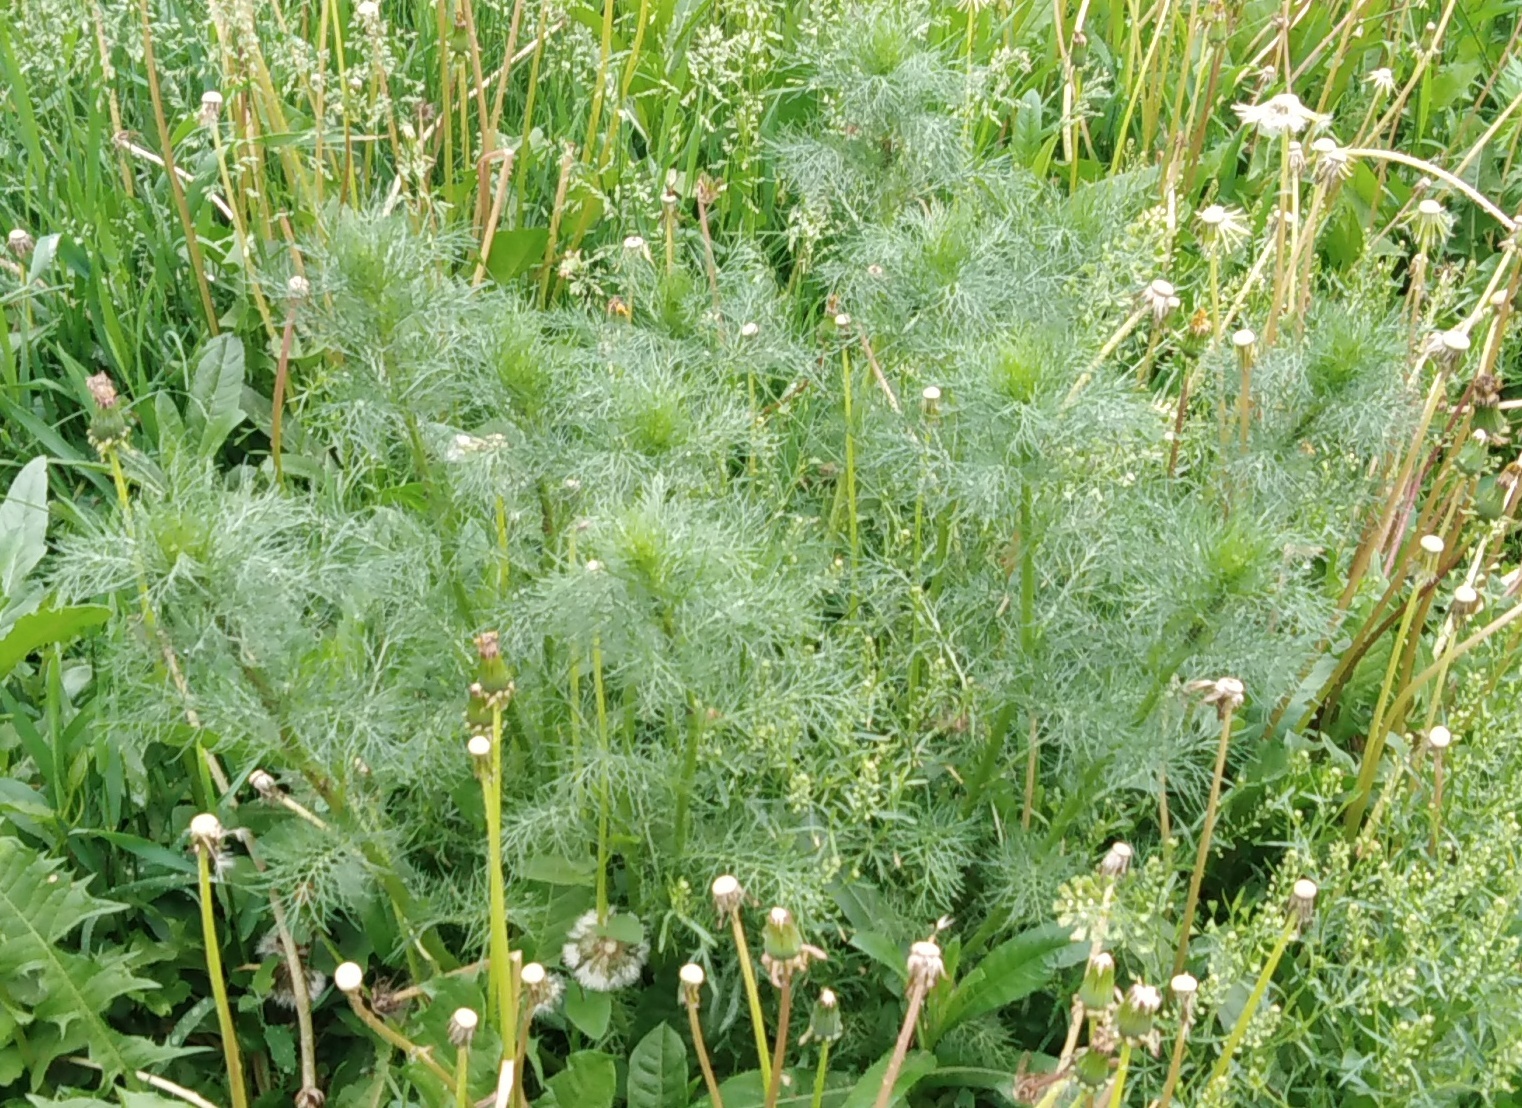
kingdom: Plantae
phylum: Tracheophyta
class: Magnoliopsida
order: Asterales
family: Asteraceae
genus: Tripleurospermum
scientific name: Tripleurospermum inodorum
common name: Scentless mayweed
